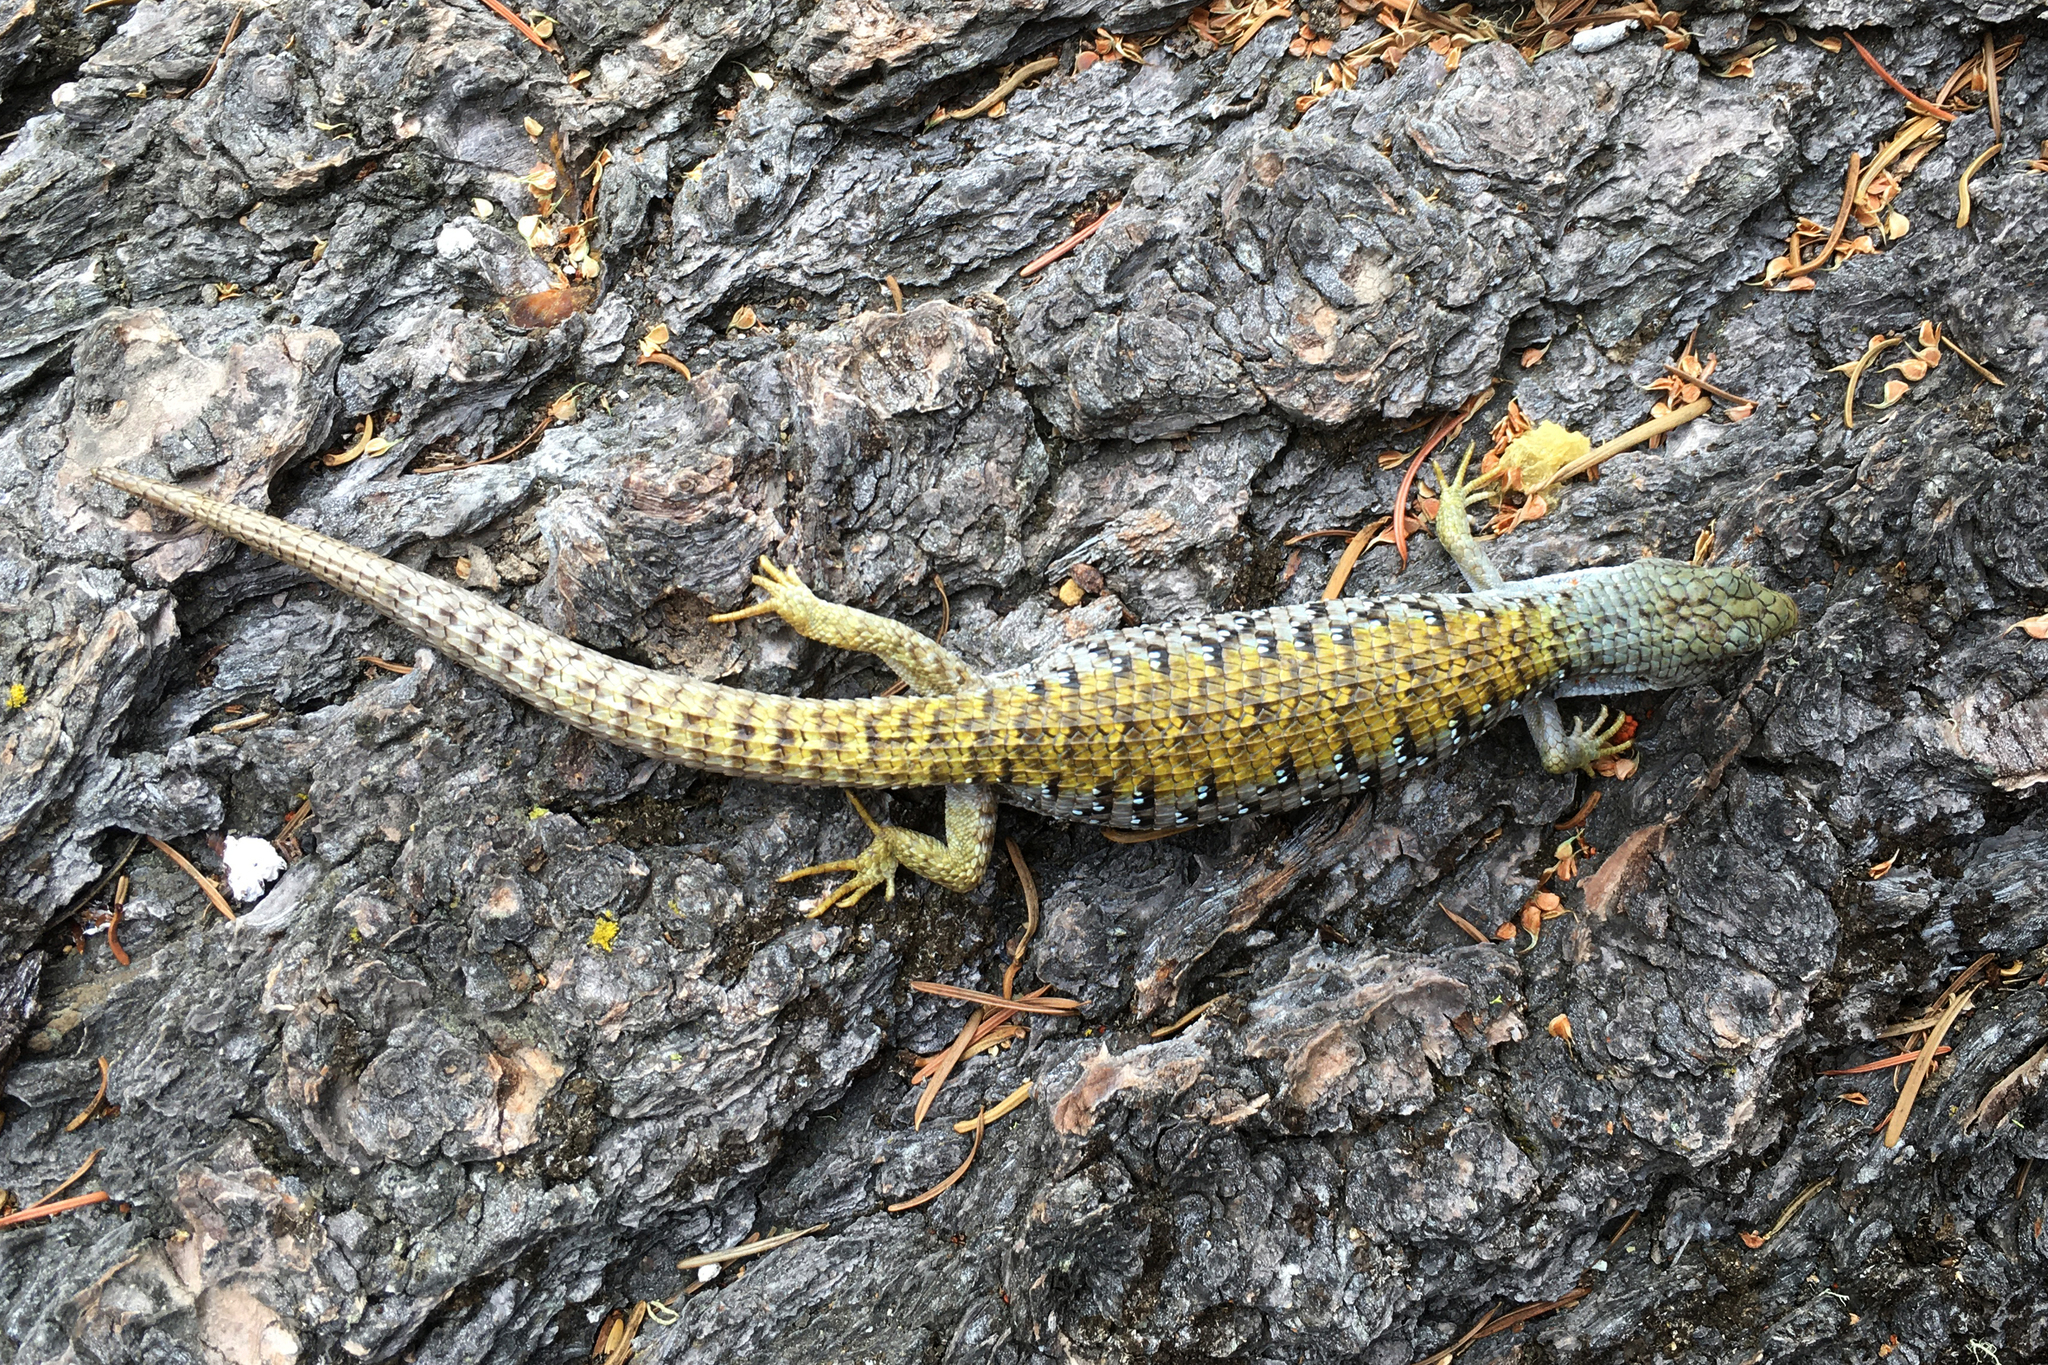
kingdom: Animalia
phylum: Chordata
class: Squamata
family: Anguidae
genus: Elgaria
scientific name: Elgaria coerulea
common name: Northern alligator lizard
